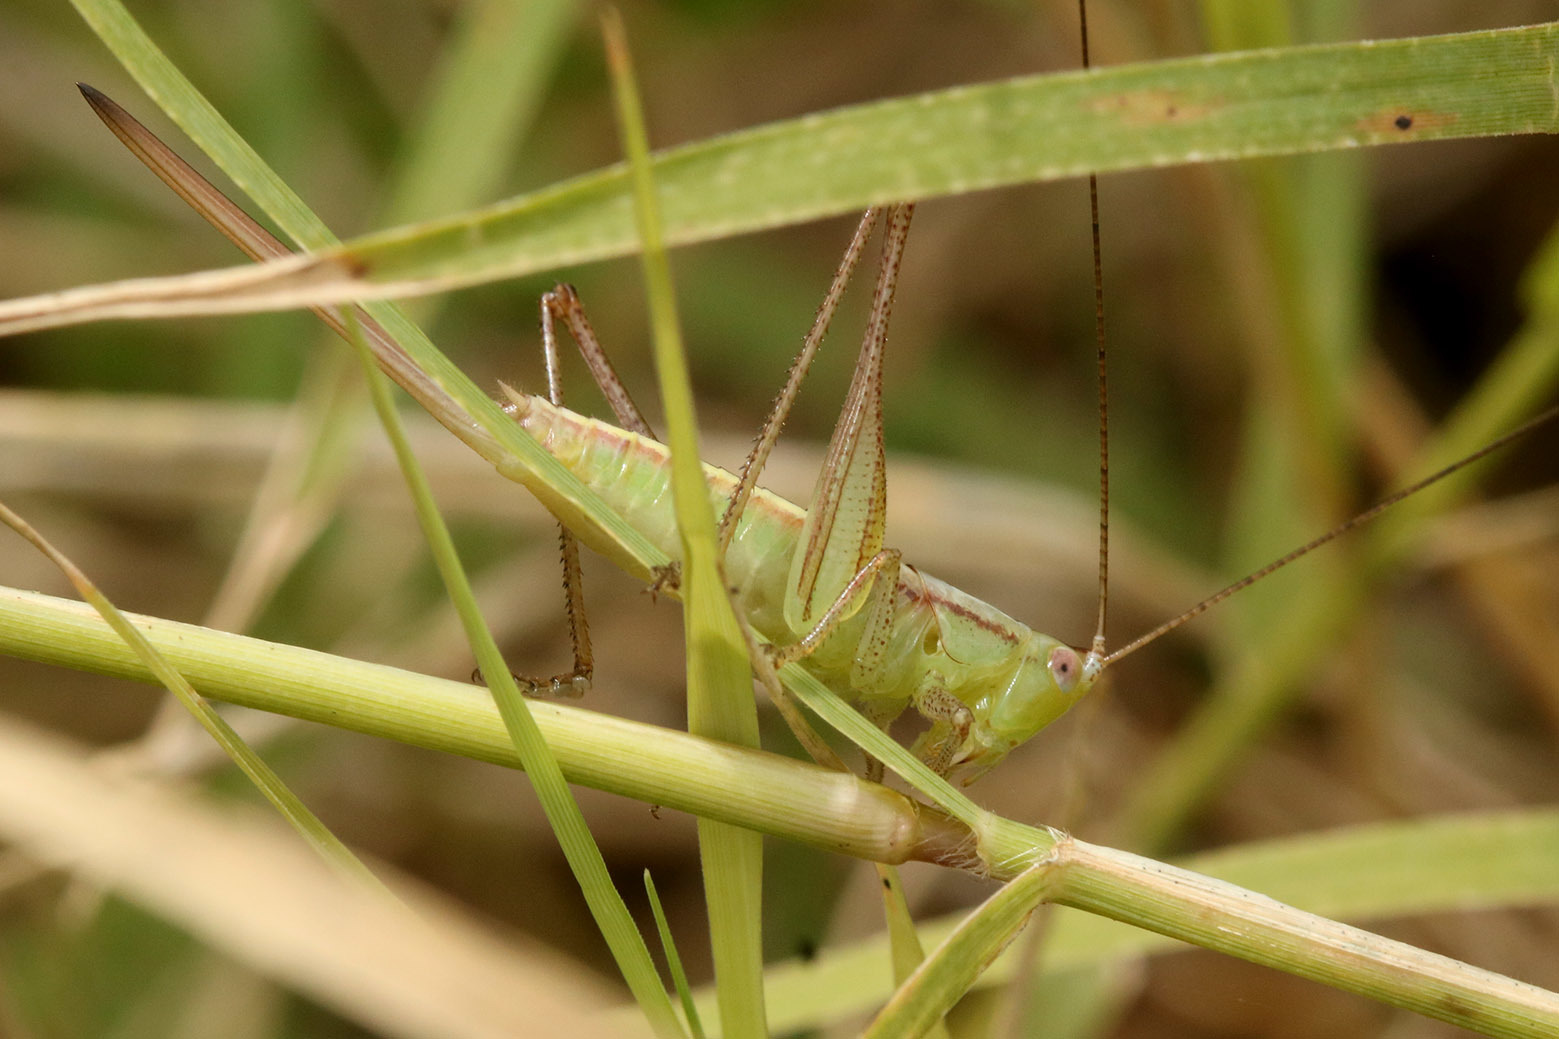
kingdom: Animalia
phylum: Arthropoda
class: Insecta
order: Orthoptera
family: Tettigoniidae
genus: Conocephalus
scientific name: Conocephalus doryphorus
